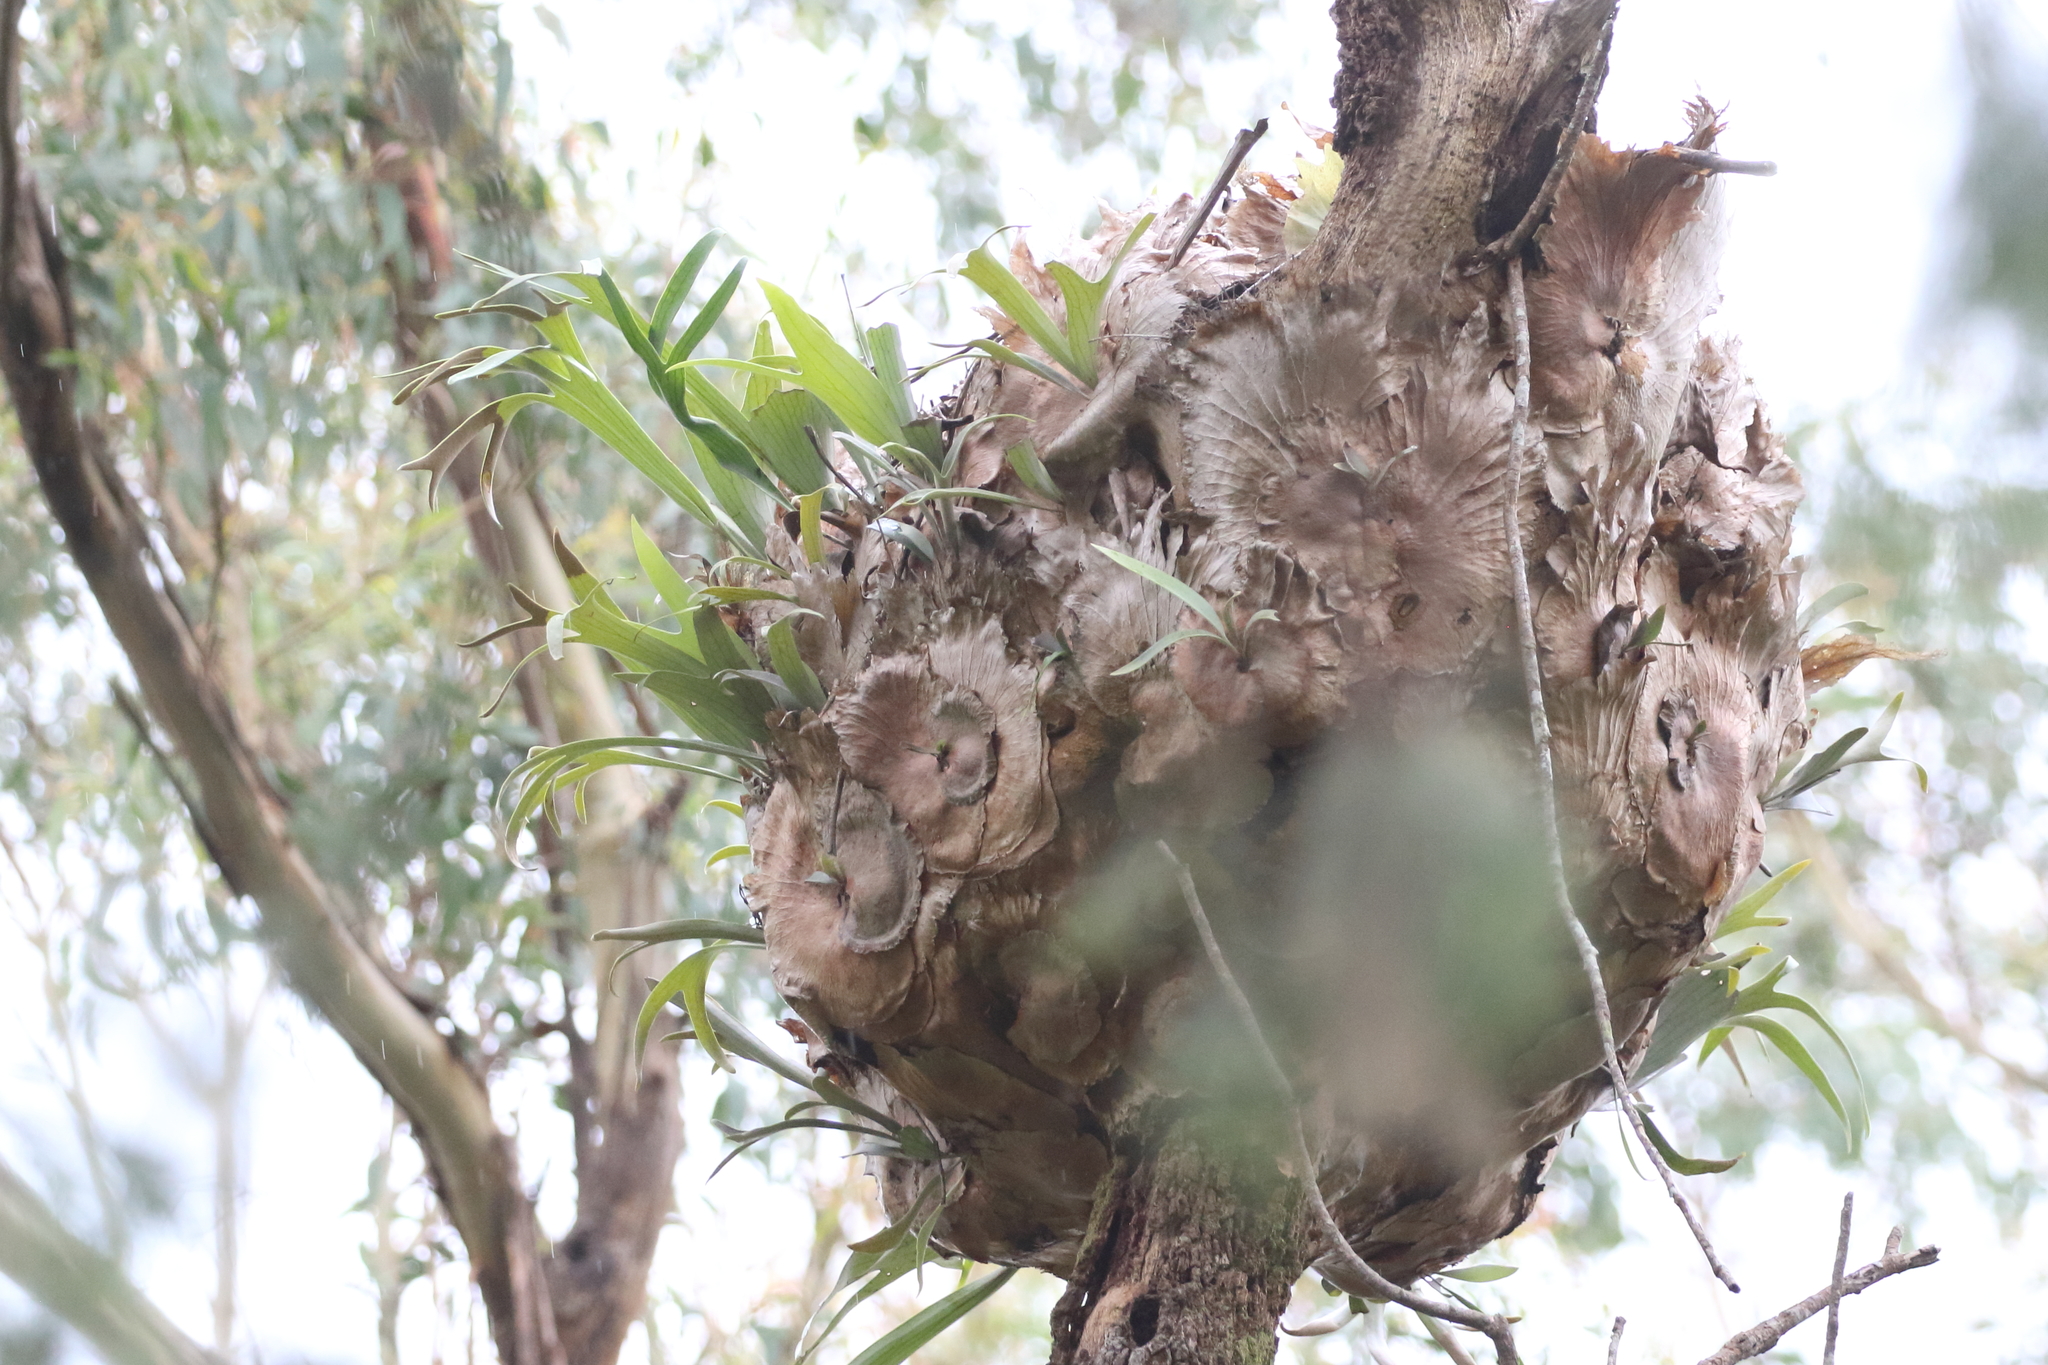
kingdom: Plantae
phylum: Tracheophyta
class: Polypodiopsida
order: Polypodiales
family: Polypodiaceae
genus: Platycerium
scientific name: Platycerium bifurcatum
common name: Elkhorn fern
